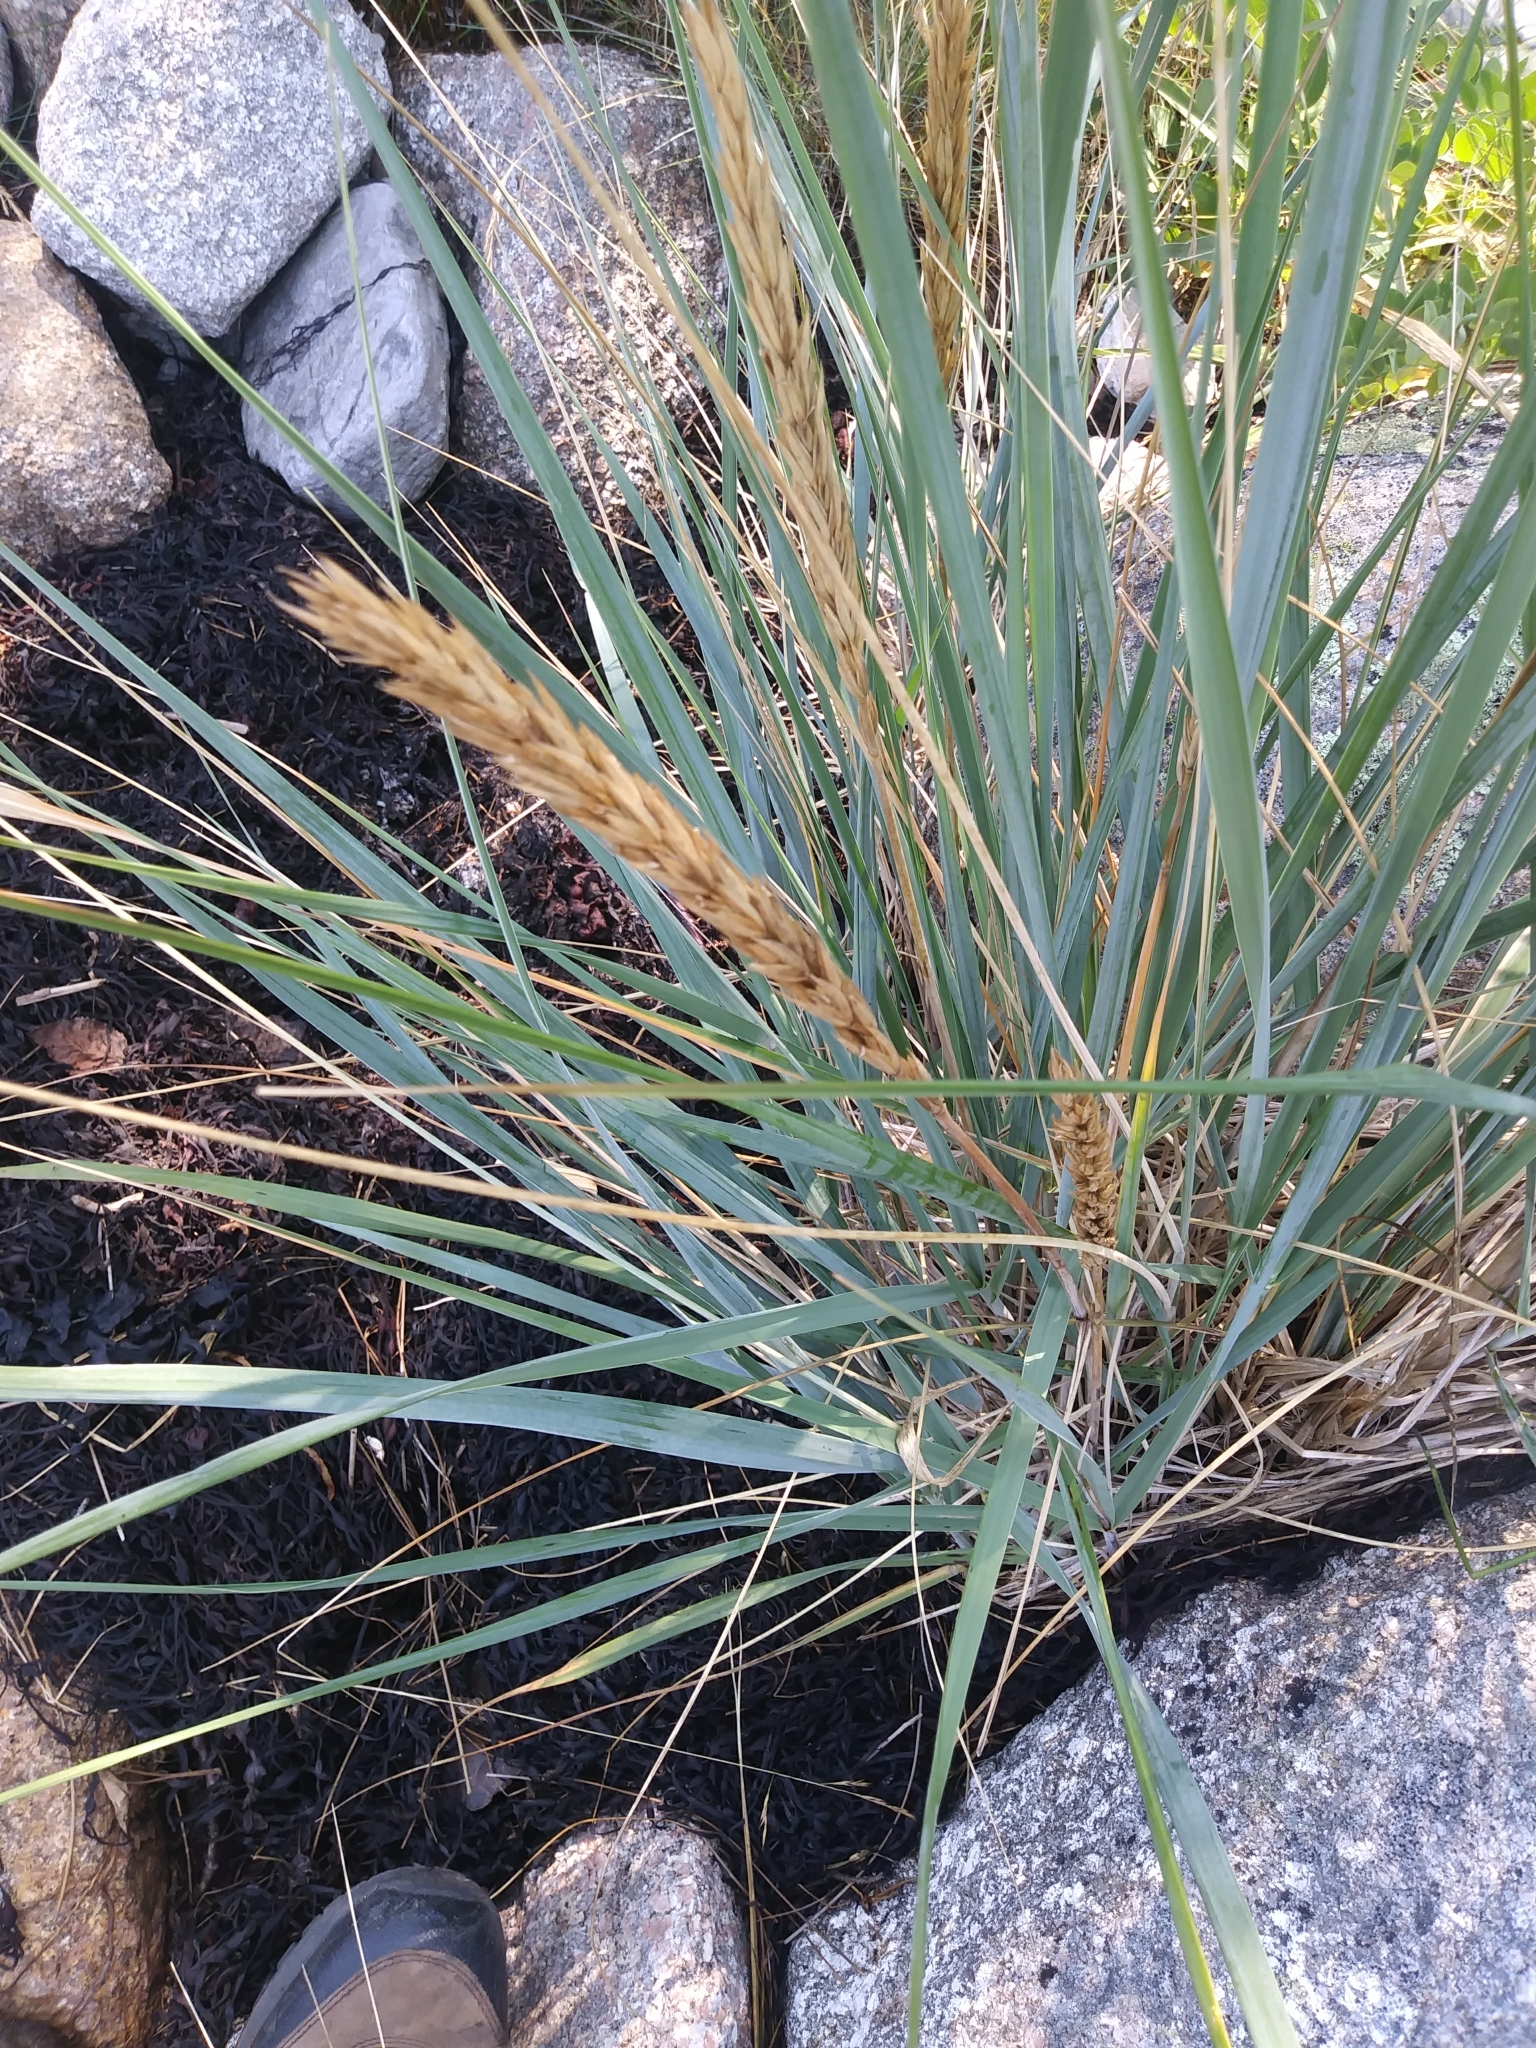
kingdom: Plantae
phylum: Tracheophyta
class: Liliopsida
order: Poales
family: Poaceae
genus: Leymus
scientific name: Leymus mollis
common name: American dune grass
